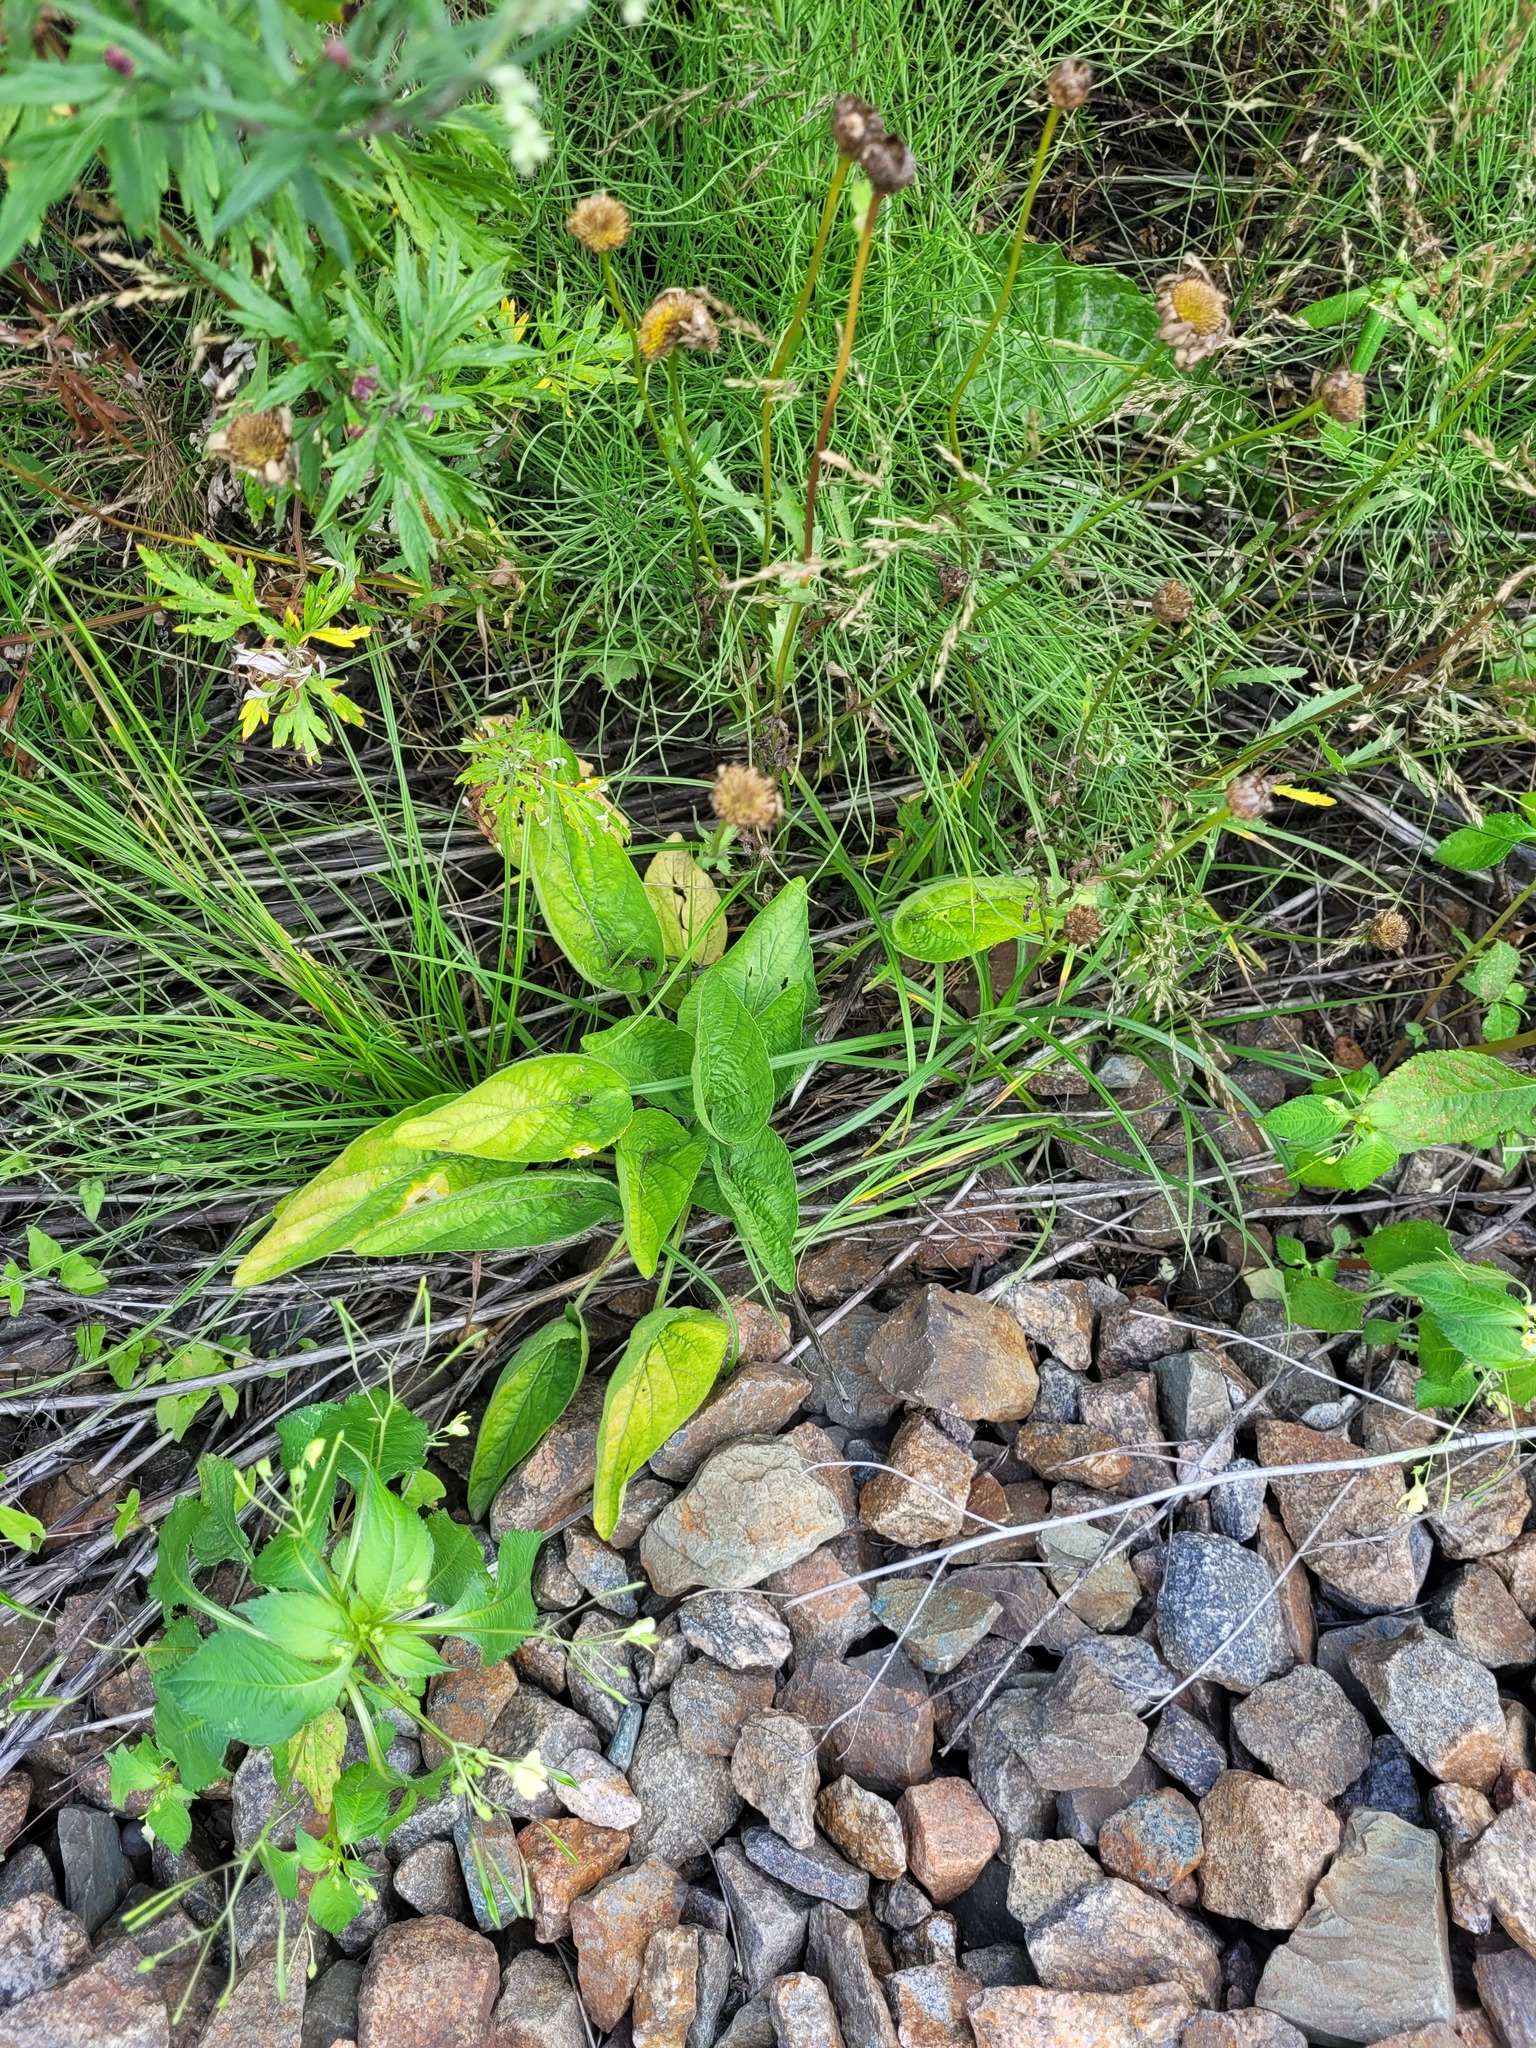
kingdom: Plantae
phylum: Tracheophyta
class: Magnoliopsida
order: Malpighiales
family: Violaceae
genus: Viola
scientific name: Viola hirta
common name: Hairy violet
